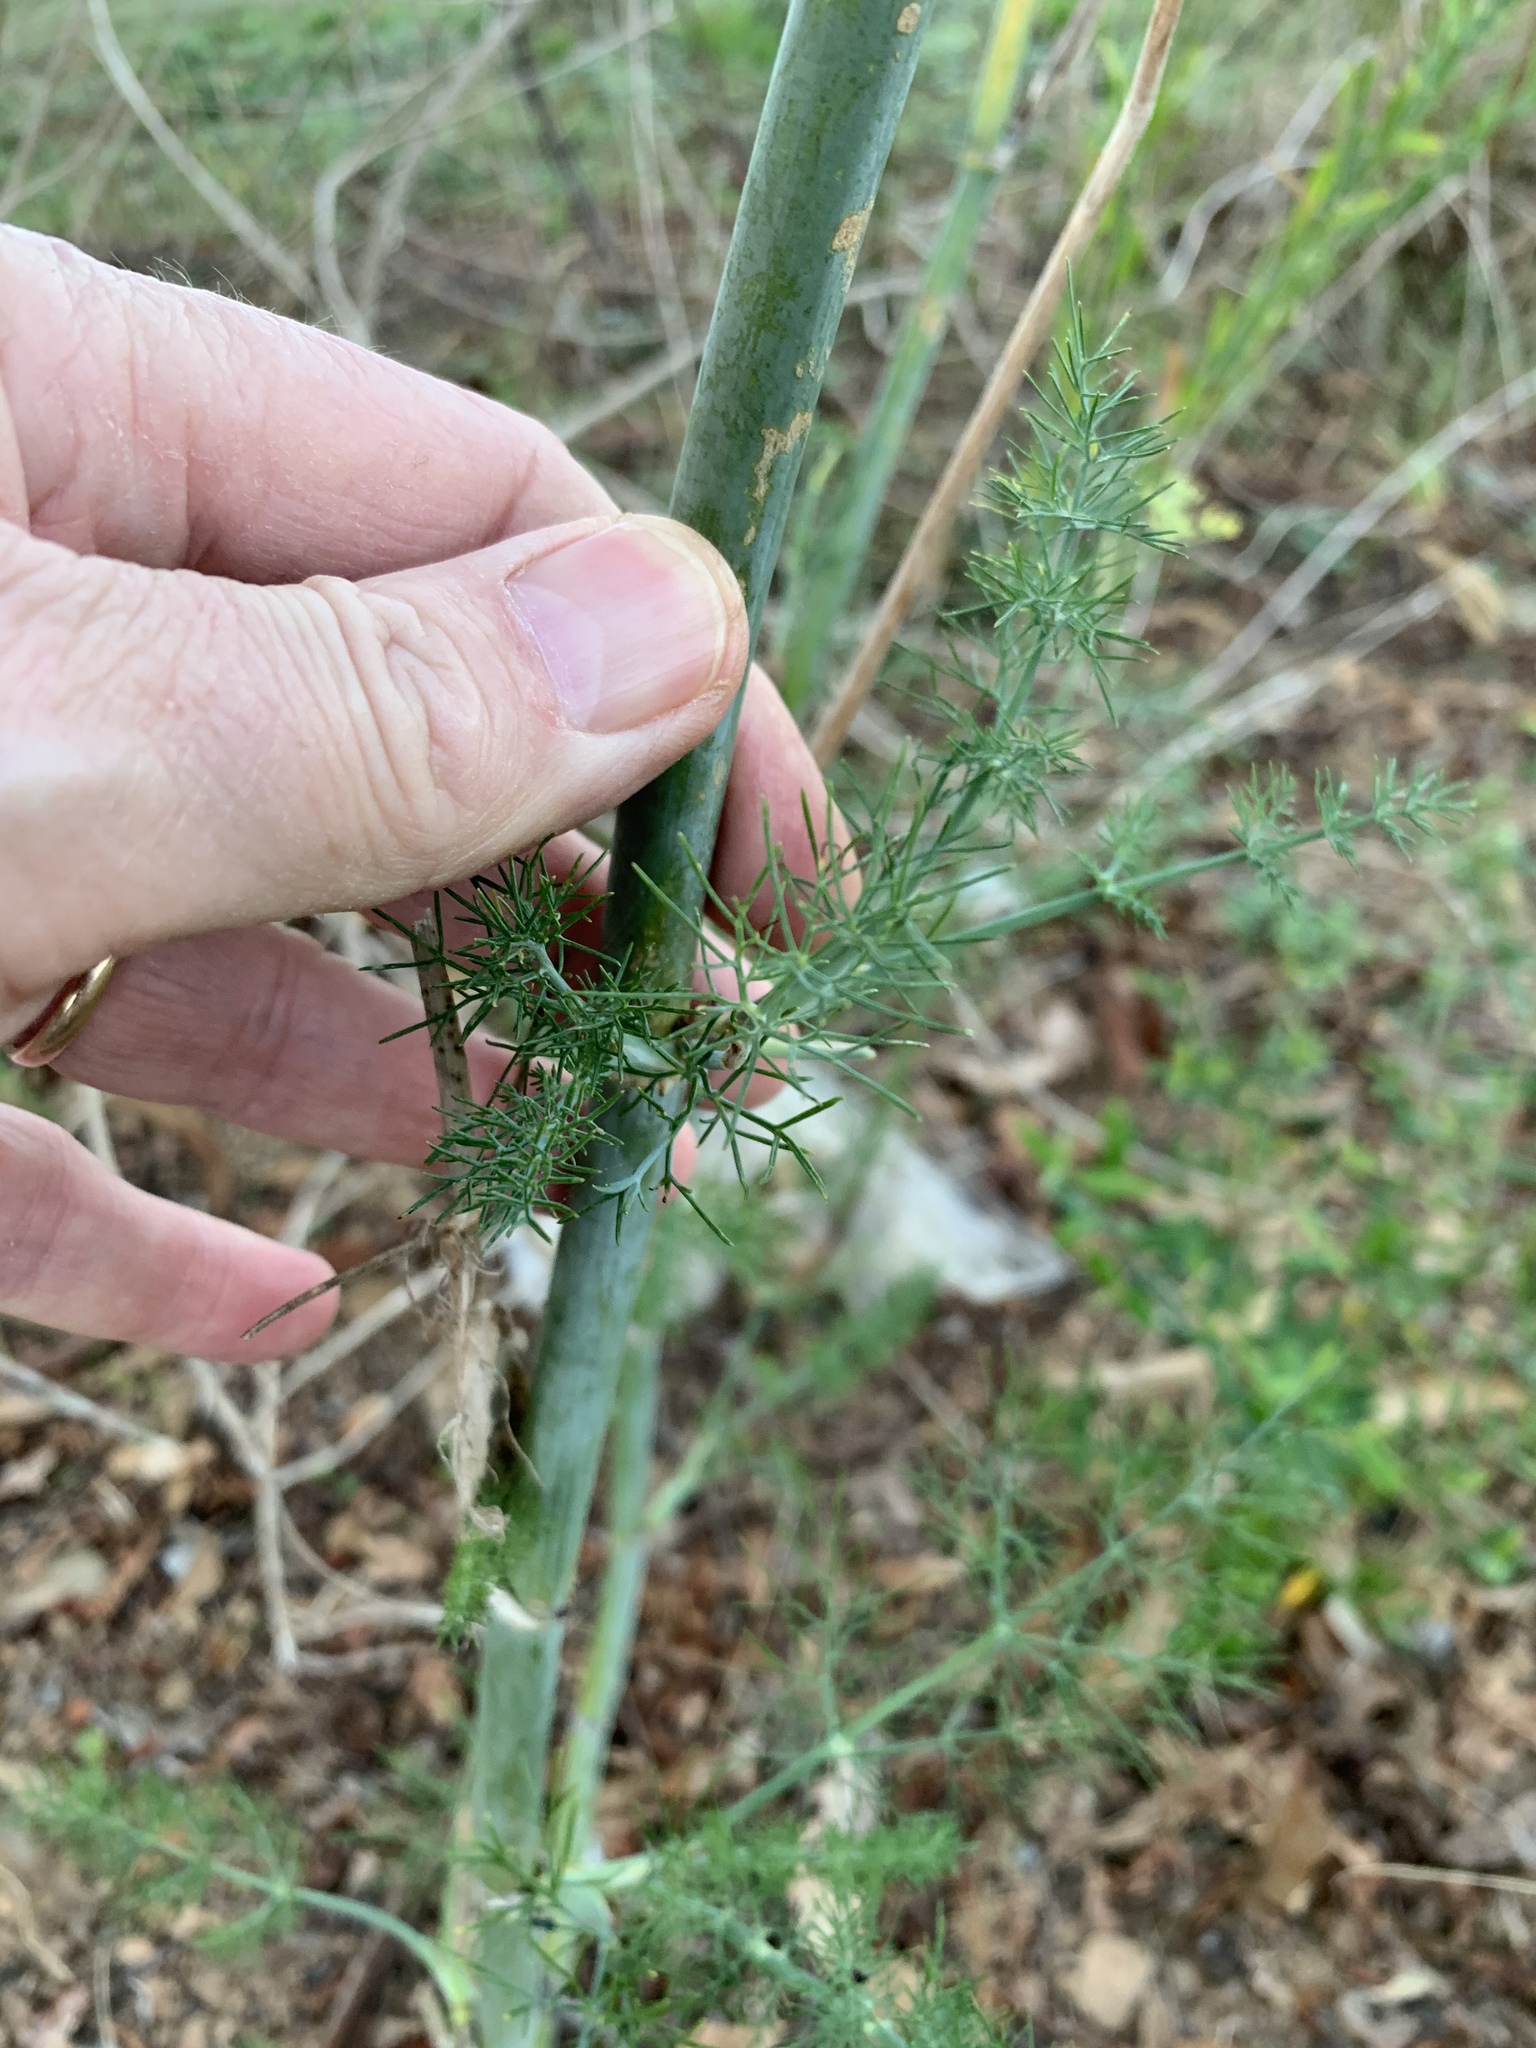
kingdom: Plantae
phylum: Tracheophyta
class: Magnoliopsida
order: Apiales
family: Apiaceae
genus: Foeniculum
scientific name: Foeniculum vulgare
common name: Fennel
